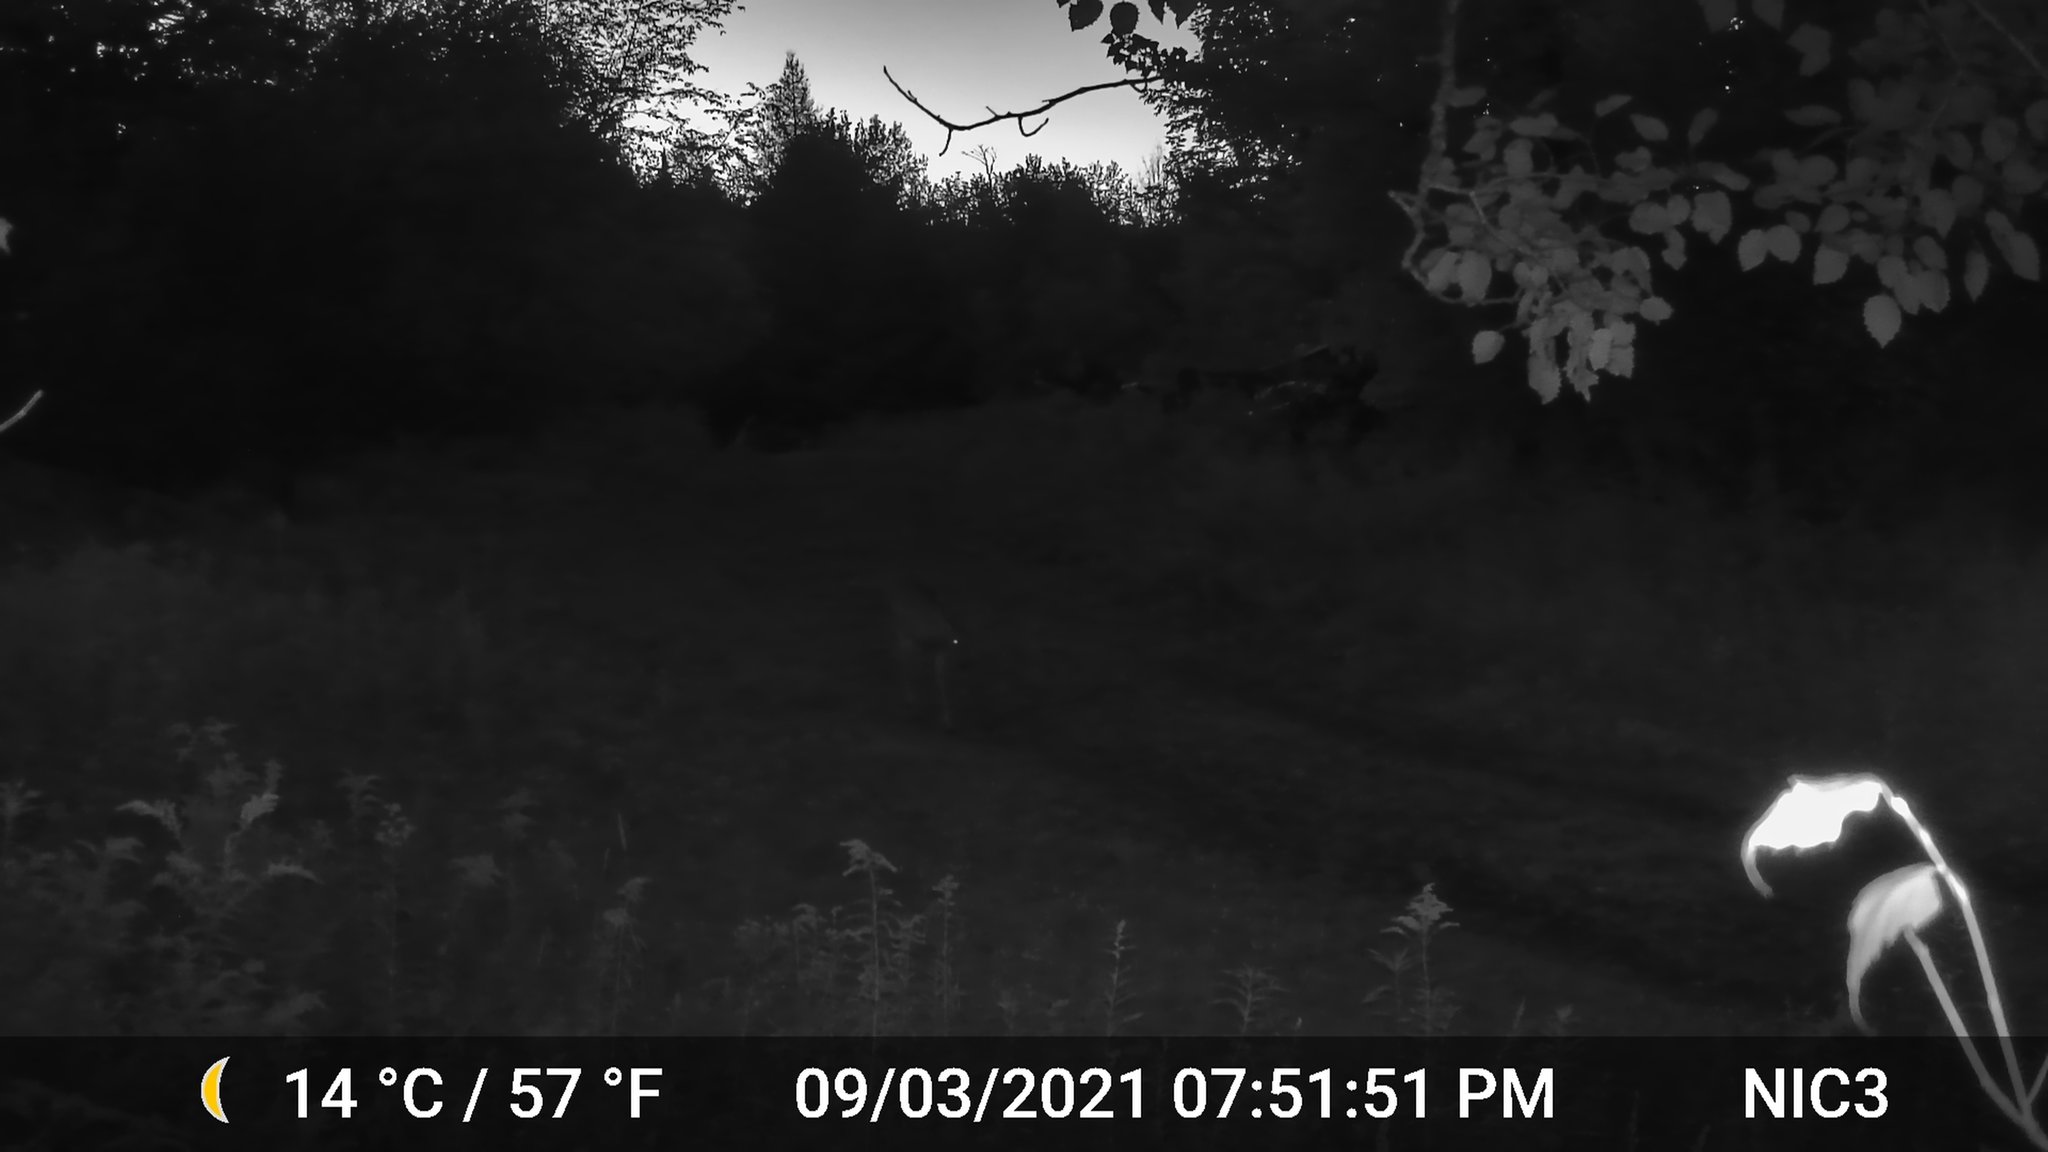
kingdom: Animalia
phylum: Chordata
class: Mammalia
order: Artiodactyla
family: Cervidae
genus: Odocoileus
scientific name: Odocoileus virginianus
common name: White-tailed deer
